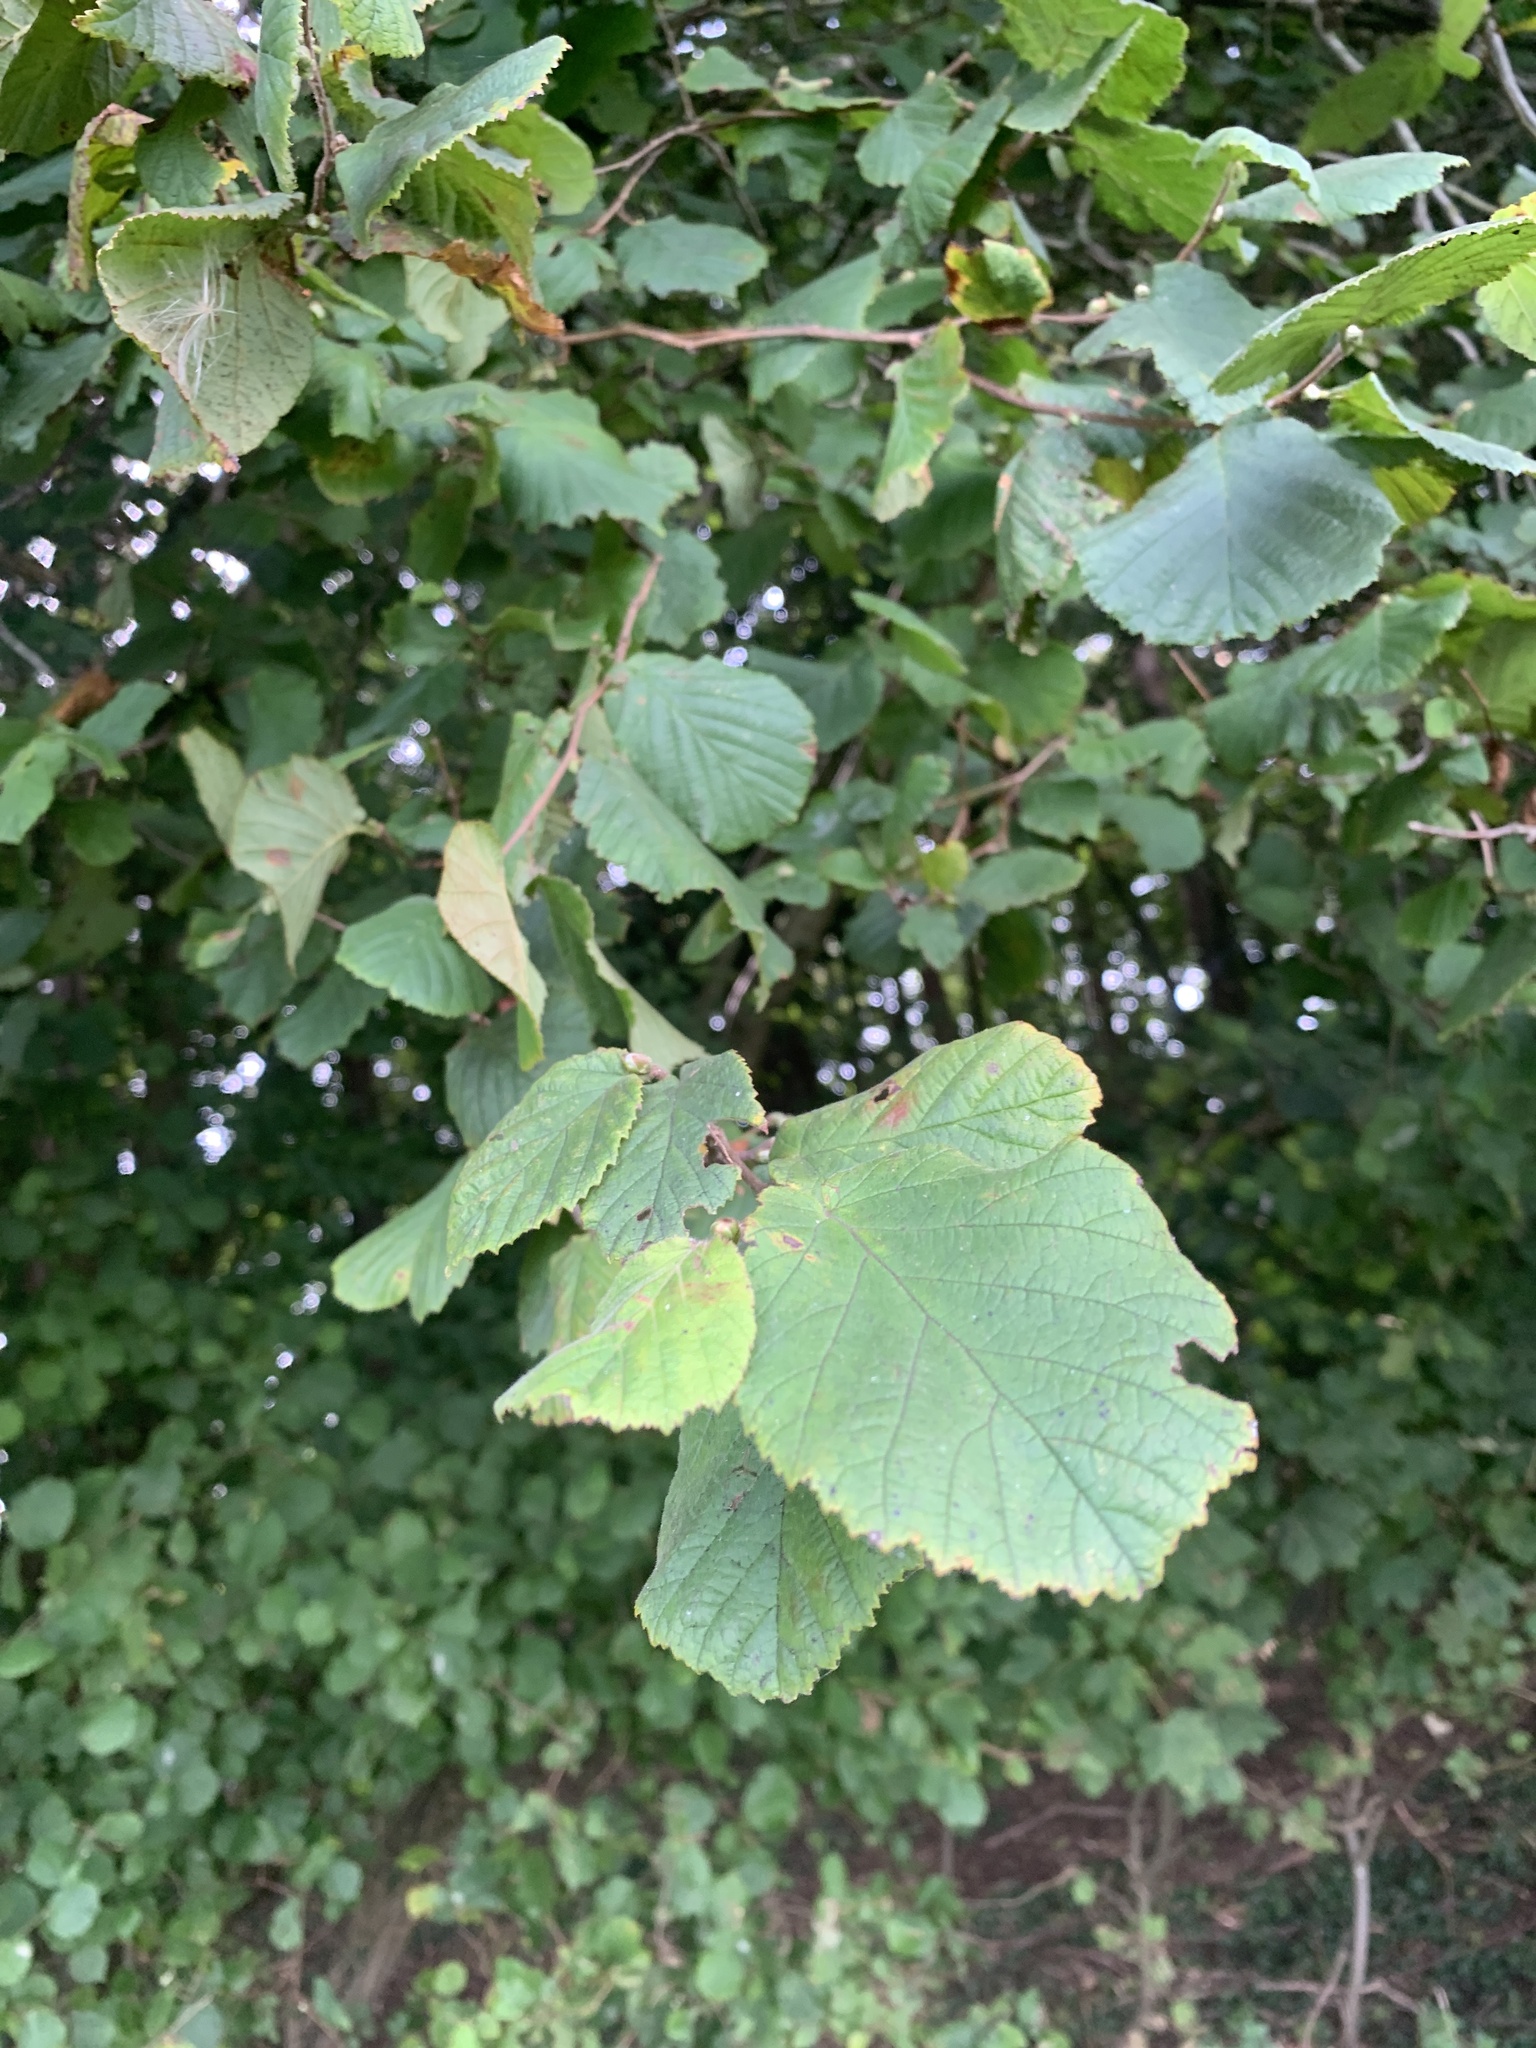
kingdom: Plantae
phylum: Tracheophyta
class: Magnoliopsida
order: Fagales
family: Betulaceae
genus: Corylus
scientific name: Corylus avellana
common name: European hazel
